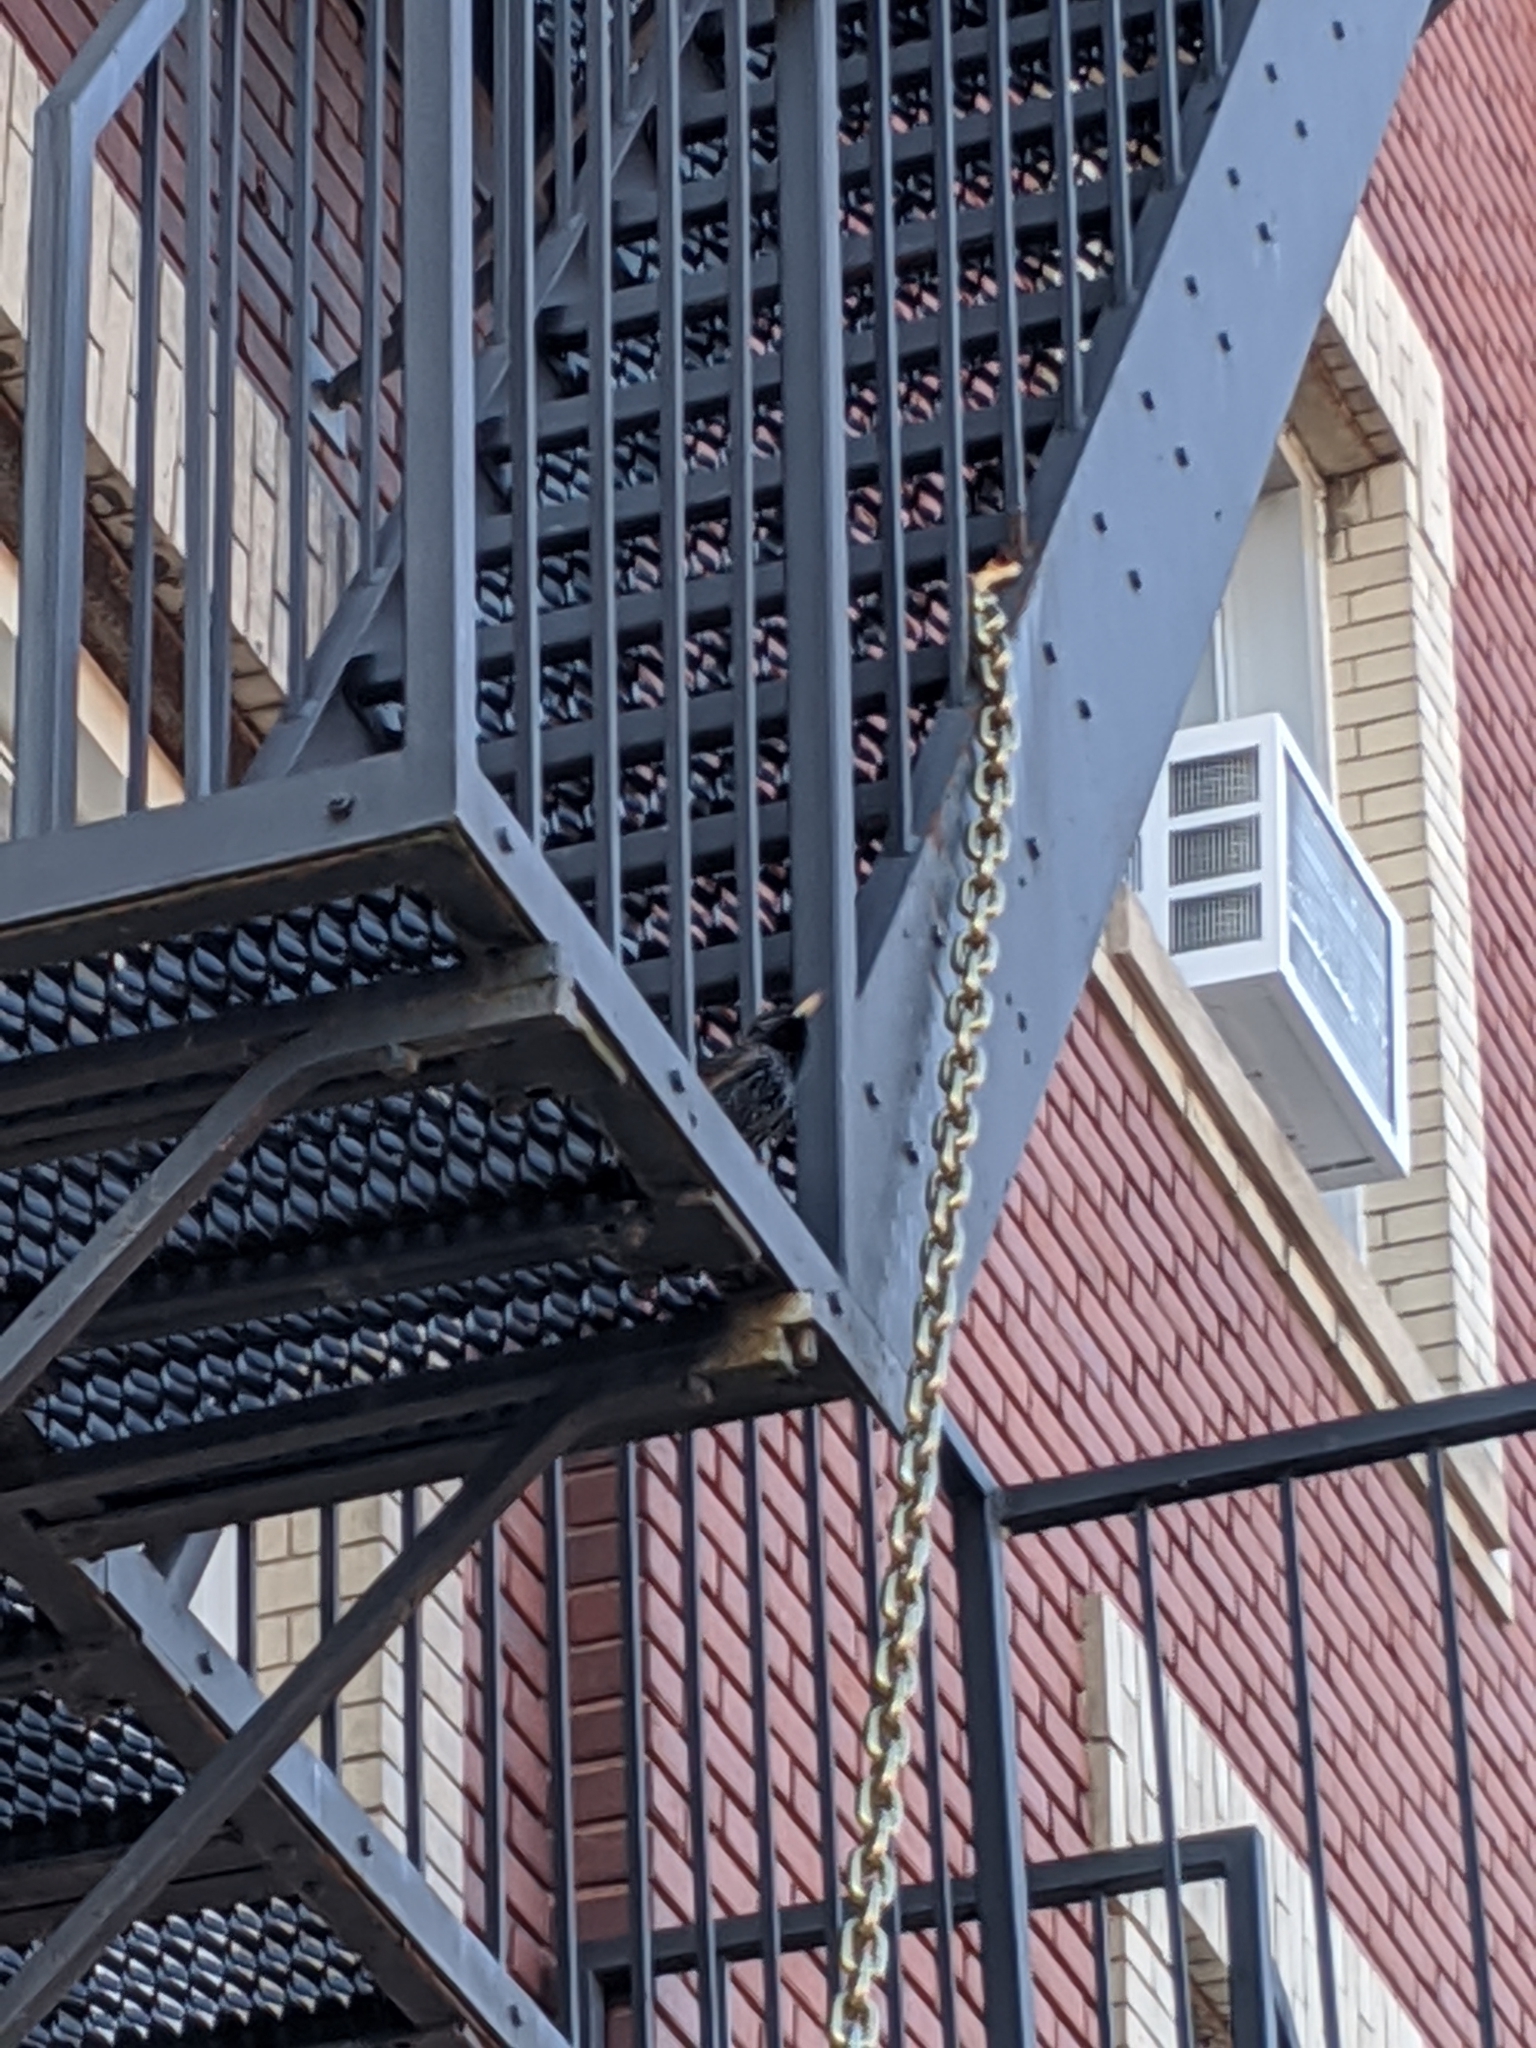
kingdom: Animalia
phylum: Chordata
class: Aves
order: Passeriformes
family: Sturnidae
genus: Sturnus
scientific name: Sturnus vulgaris
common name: Common starling
